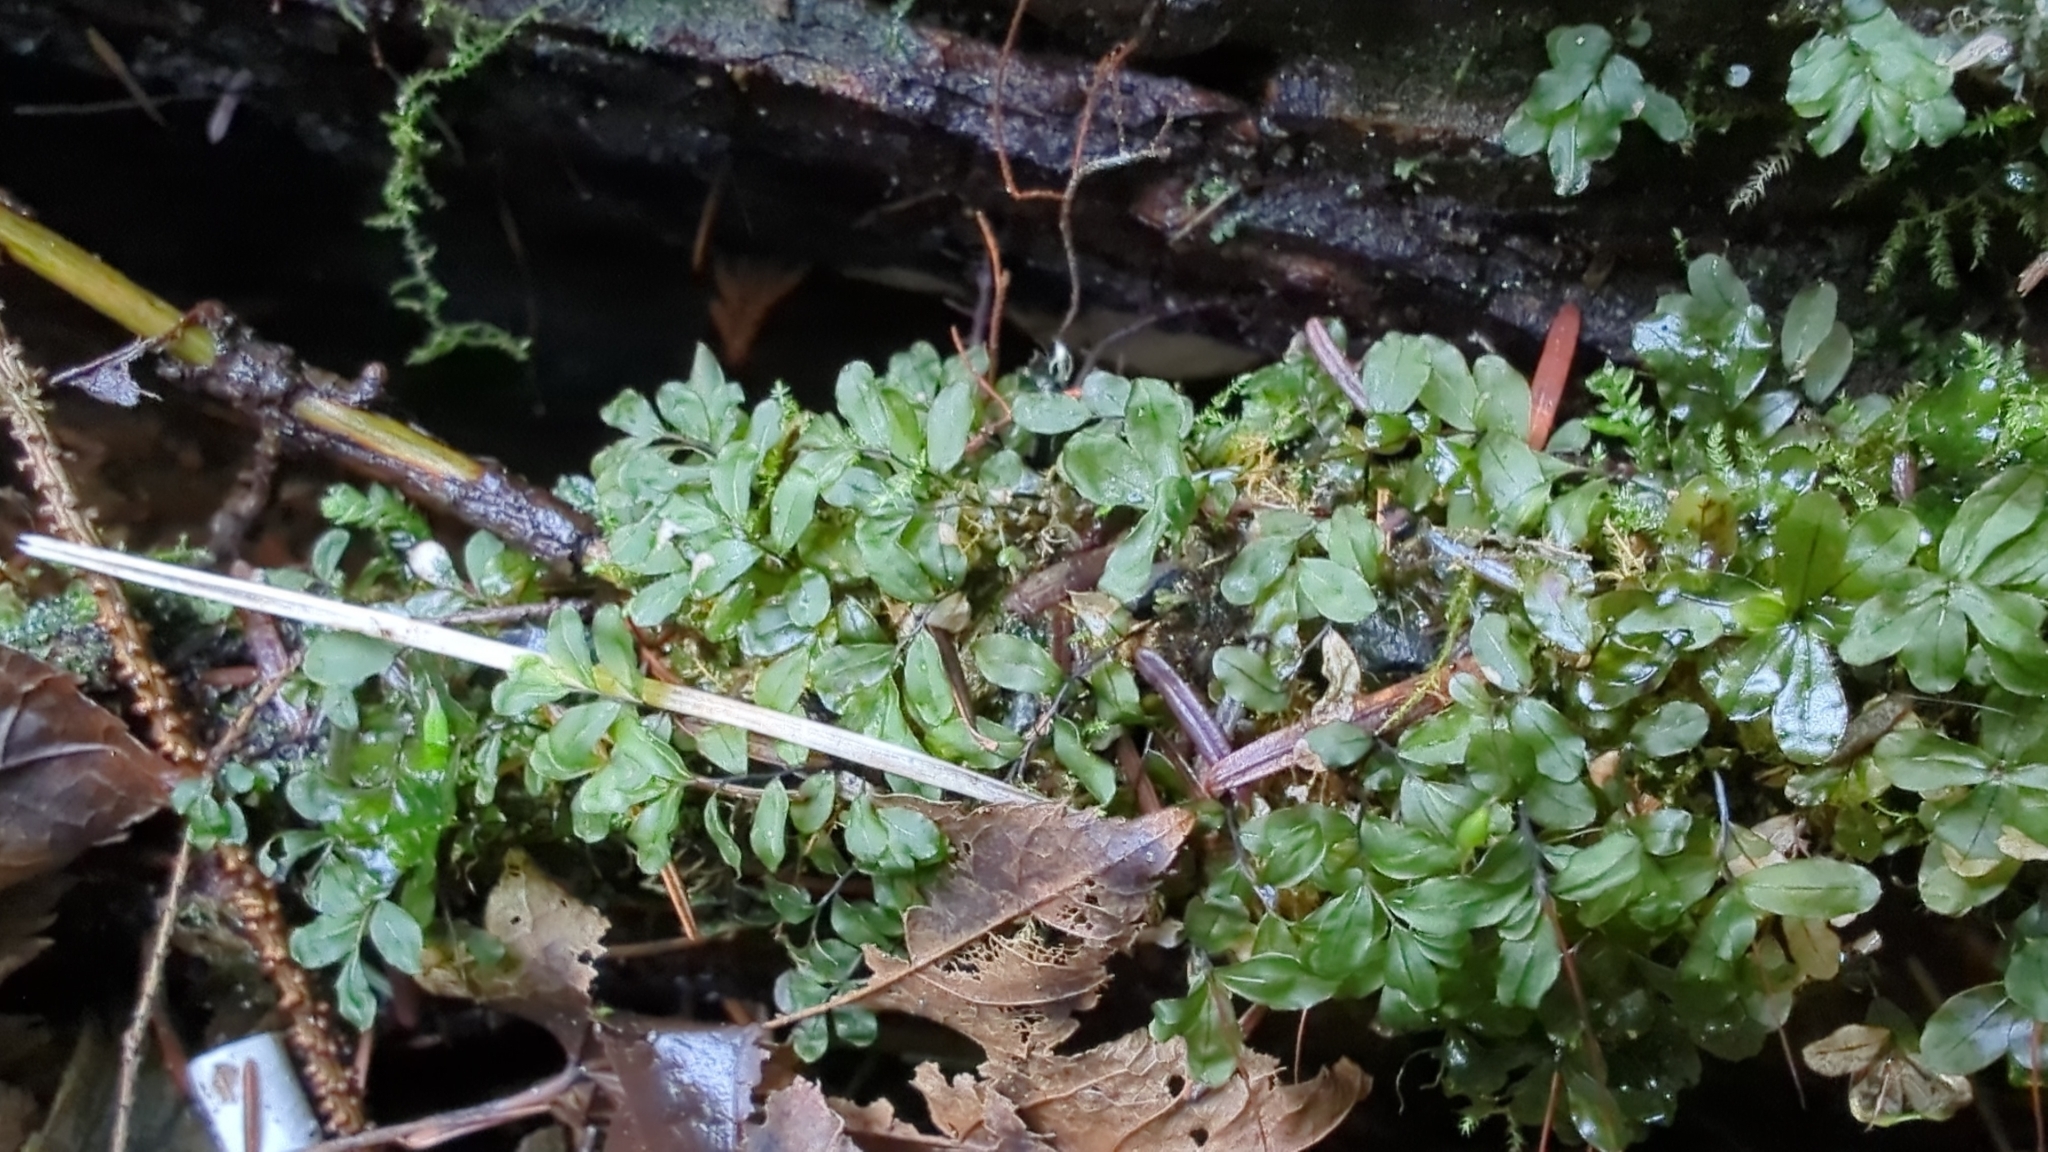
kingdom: Plantae
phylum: Bryophyta
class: Bryopsida
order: Bryales
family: Mniaceae
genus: Rhizomnium
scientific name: Rhizomnium glabrescens
